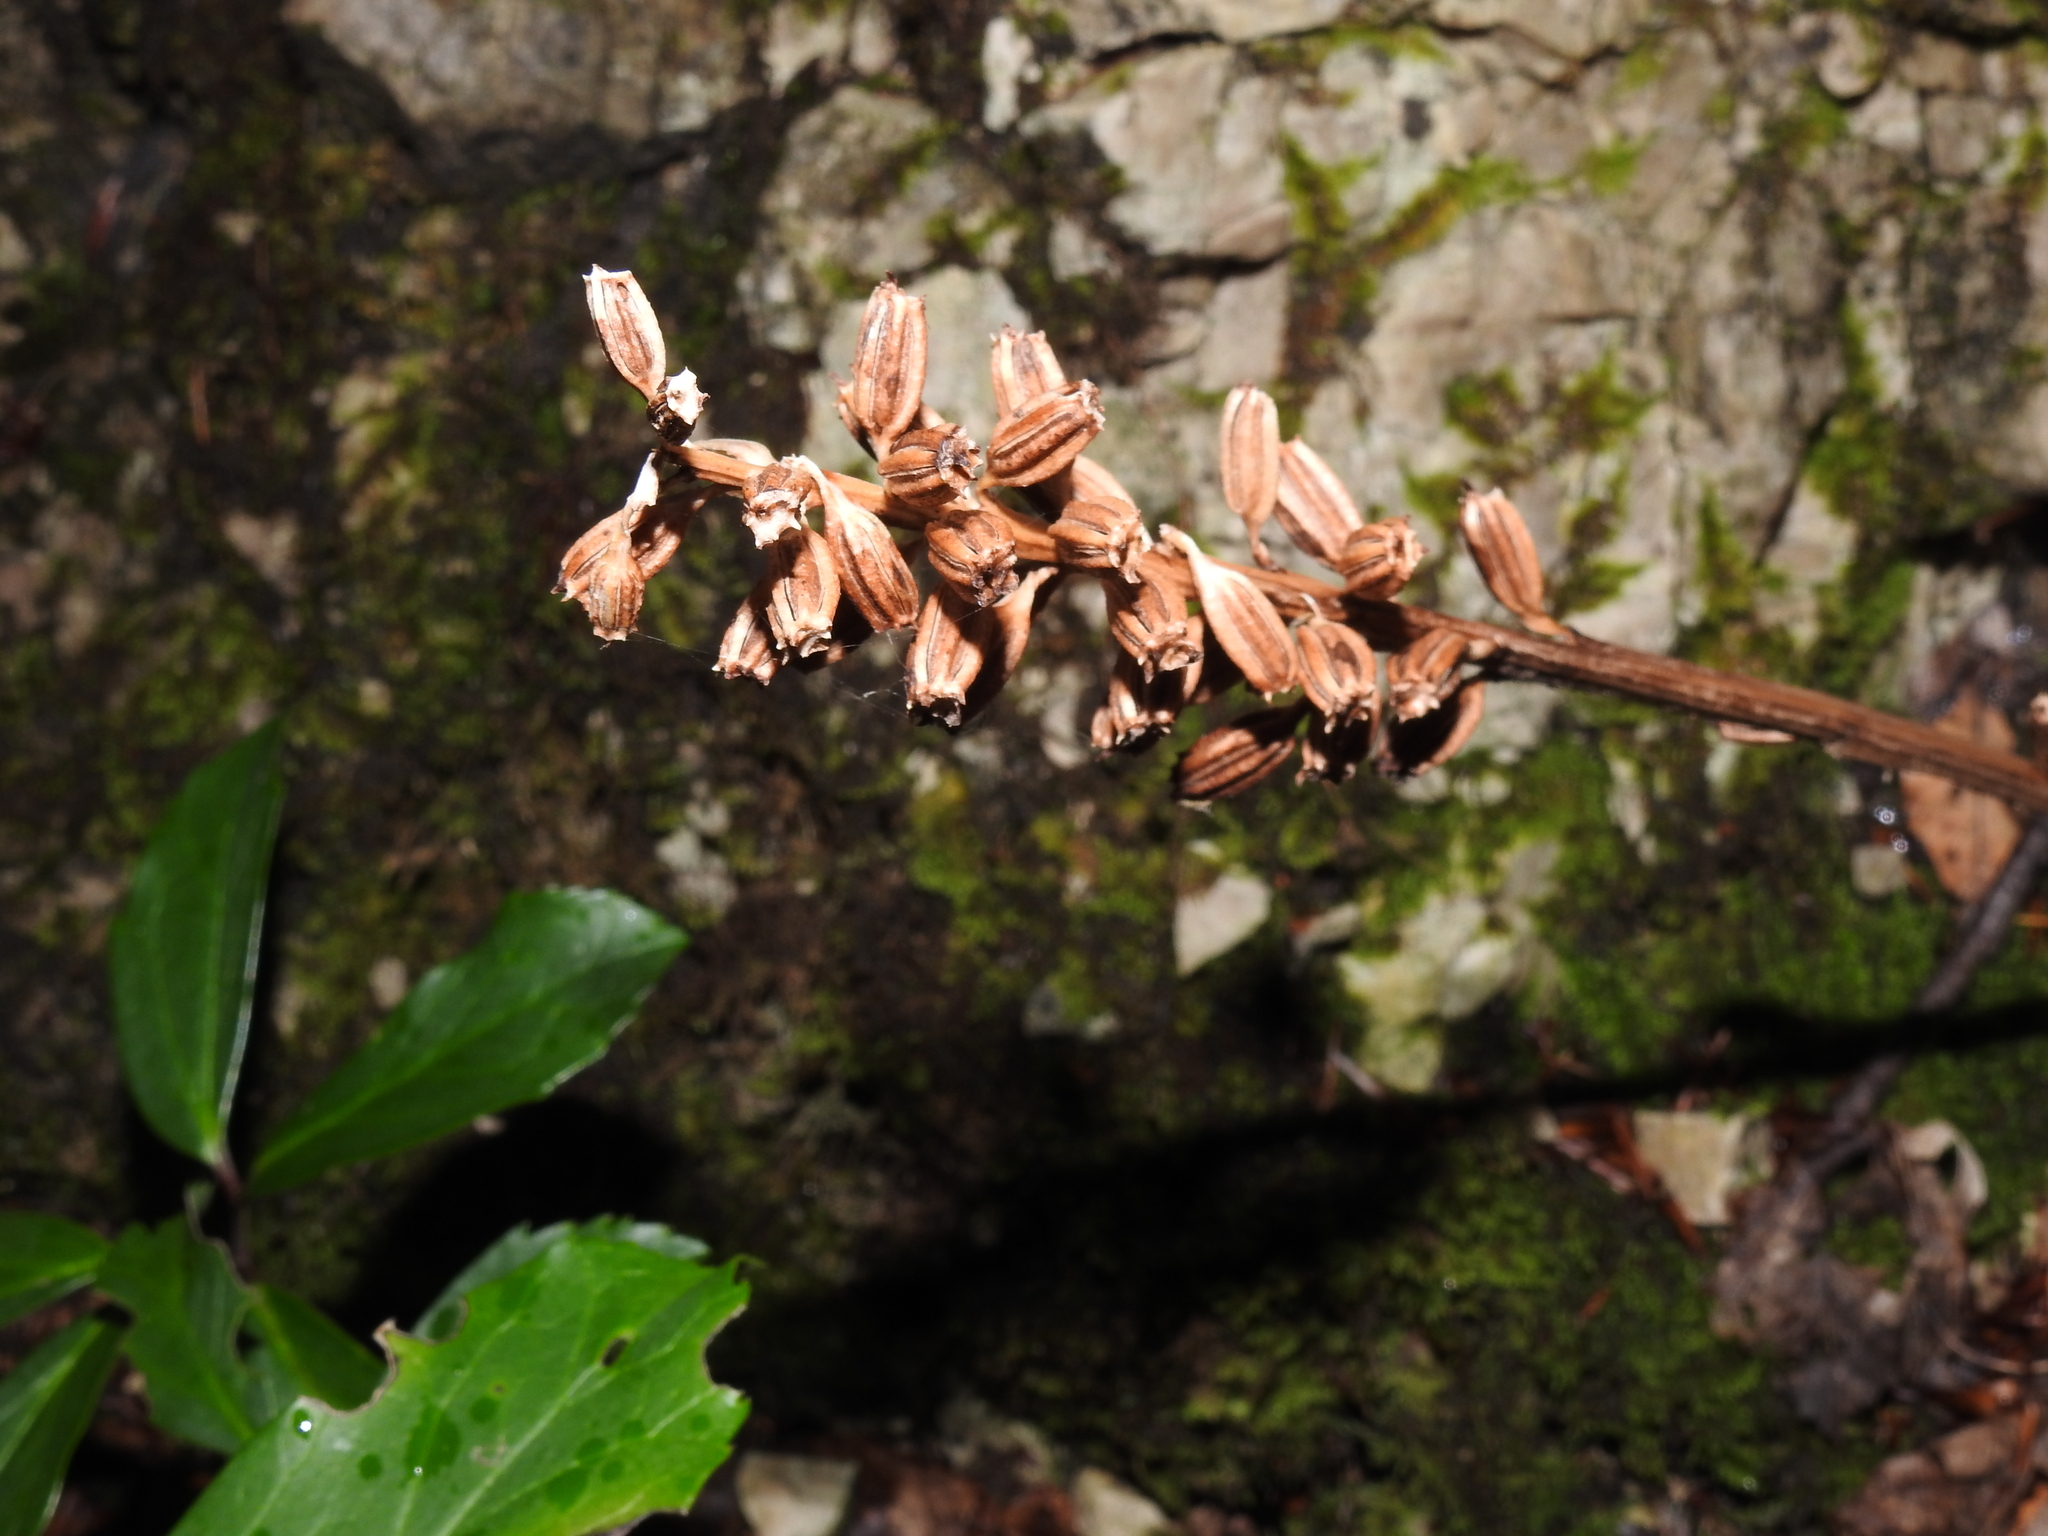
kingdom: Plantae
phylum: Tracheophyta
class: Liliopsida
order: Asparagales
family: Orchidaceae
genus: Neottia
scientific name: Neottia nidus-avis
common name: Bird's-nest orchid
